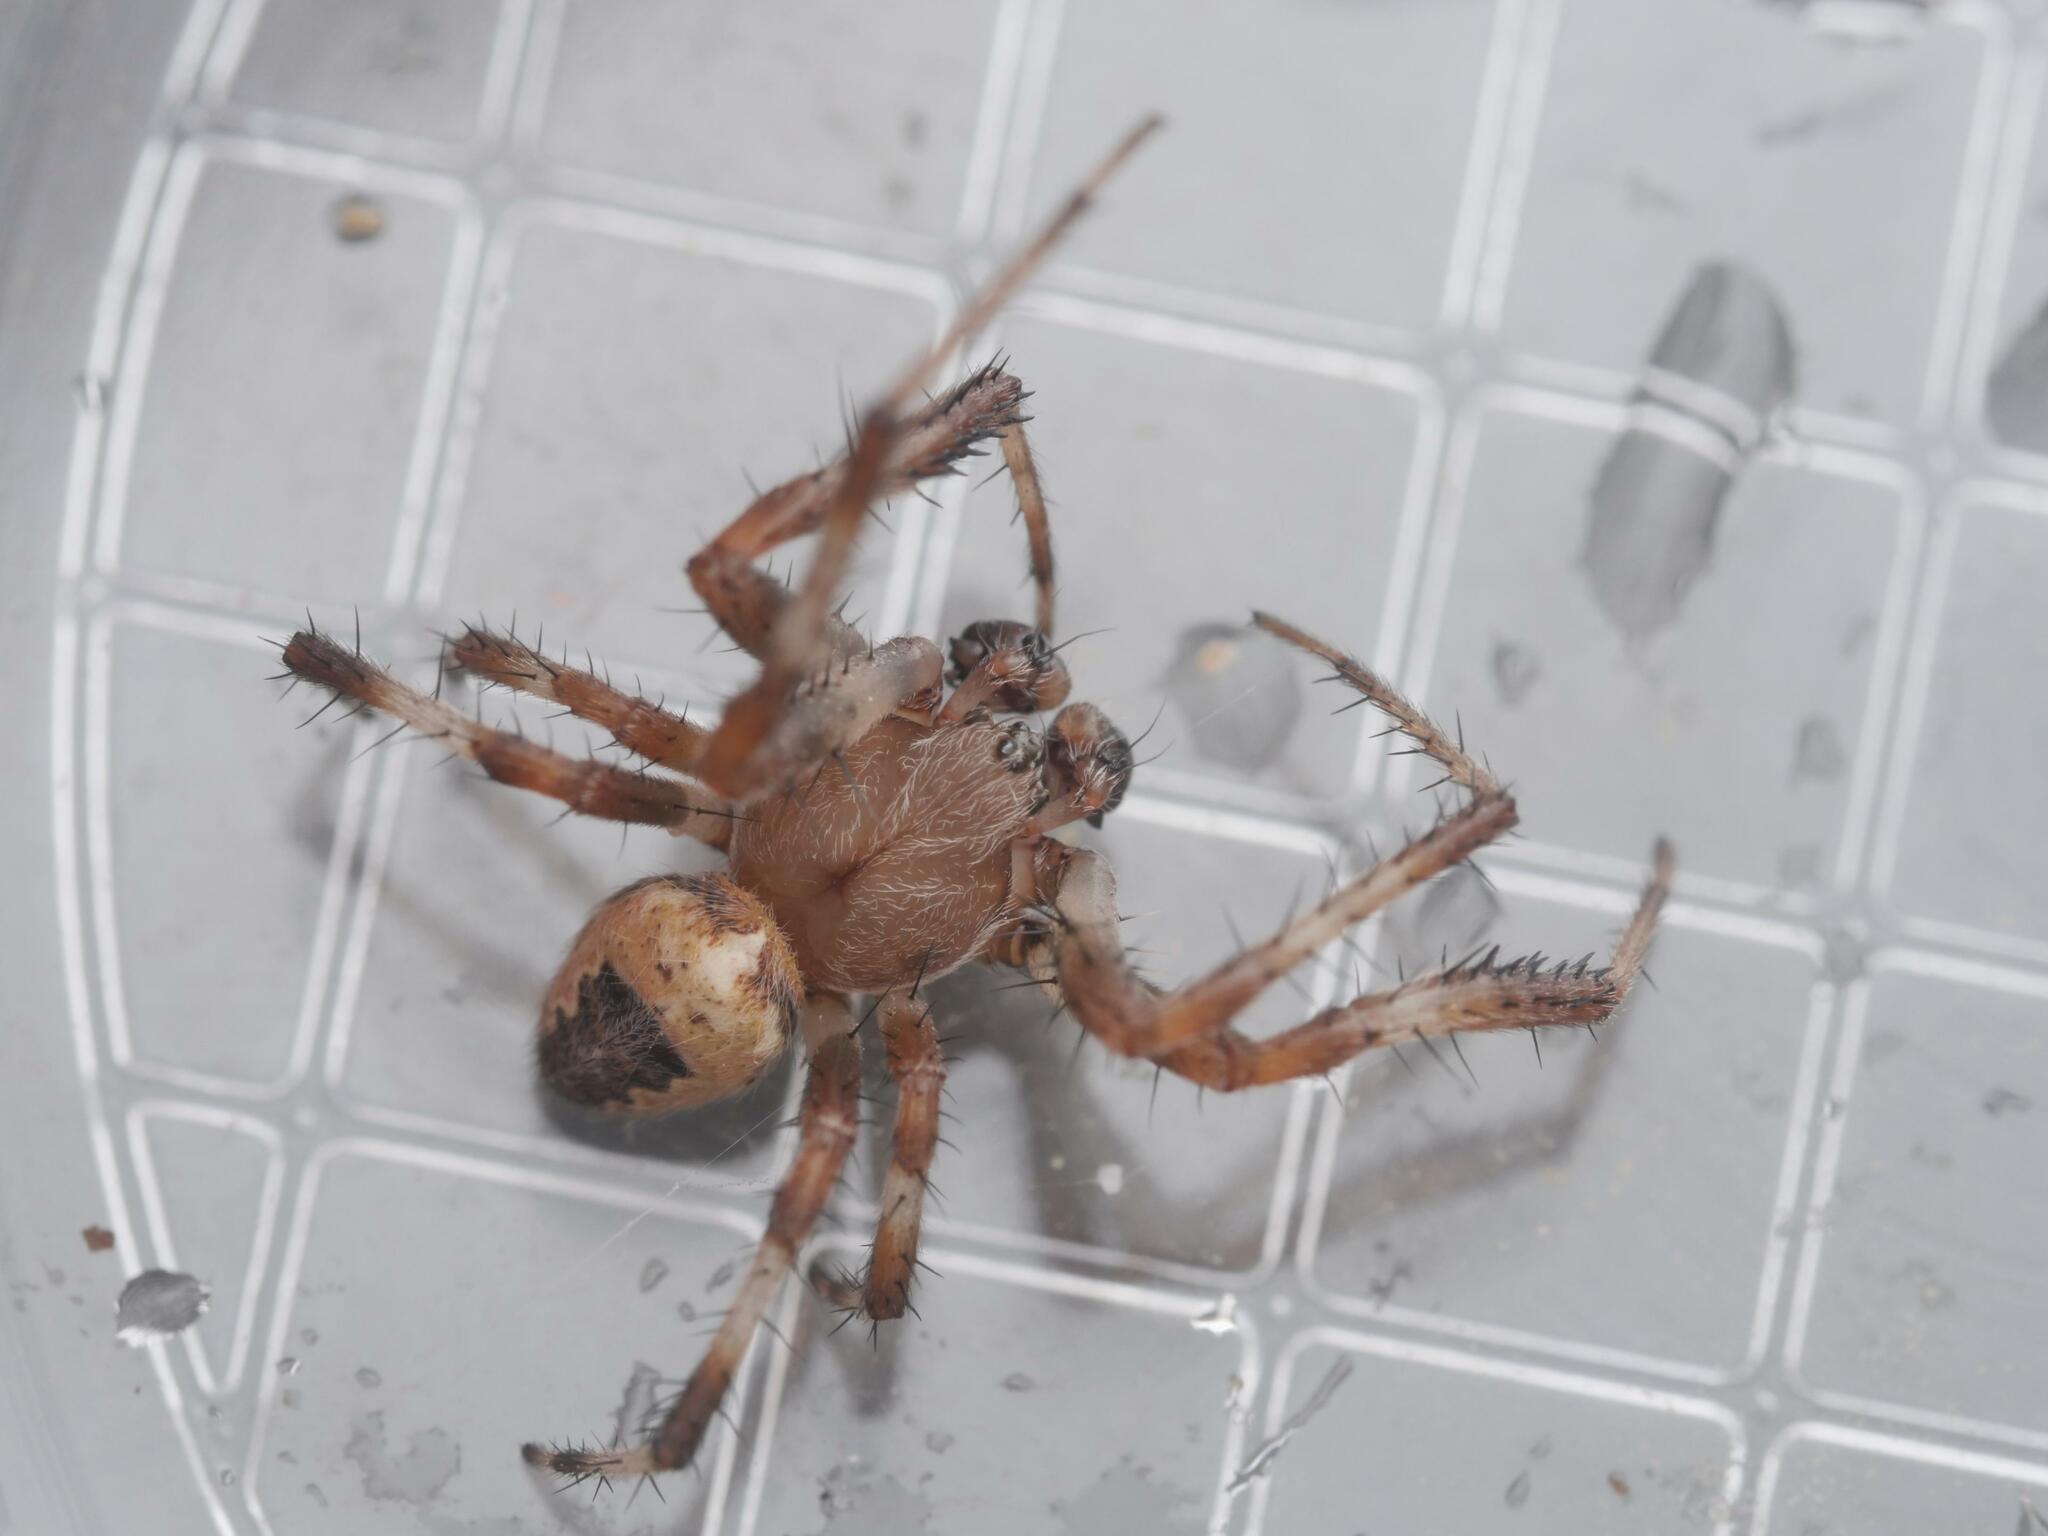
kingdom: Animalia
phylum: Arthropoda
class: Arachnida
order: Araneae
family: Araneidae
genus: Araneus
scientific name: Araneus marmoreus
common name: Marbled orbweaver
